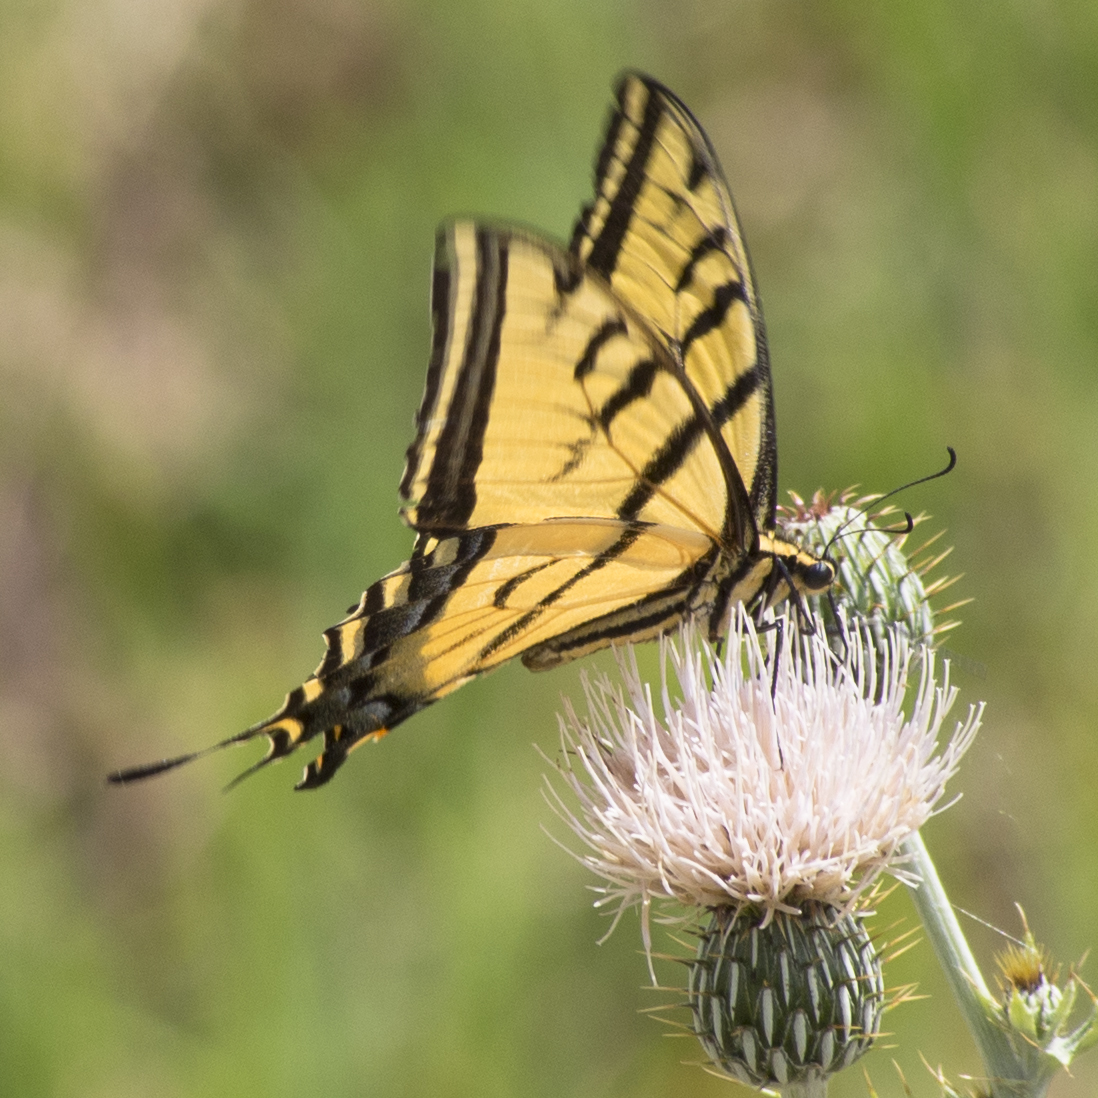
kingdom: Animalia
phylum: Arthropoda
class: Insecta
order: Lepidoptera
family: Papilionidae
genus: Papilio
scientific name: Papilio multicaudata
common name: Two-tailed tiger swallowtail
